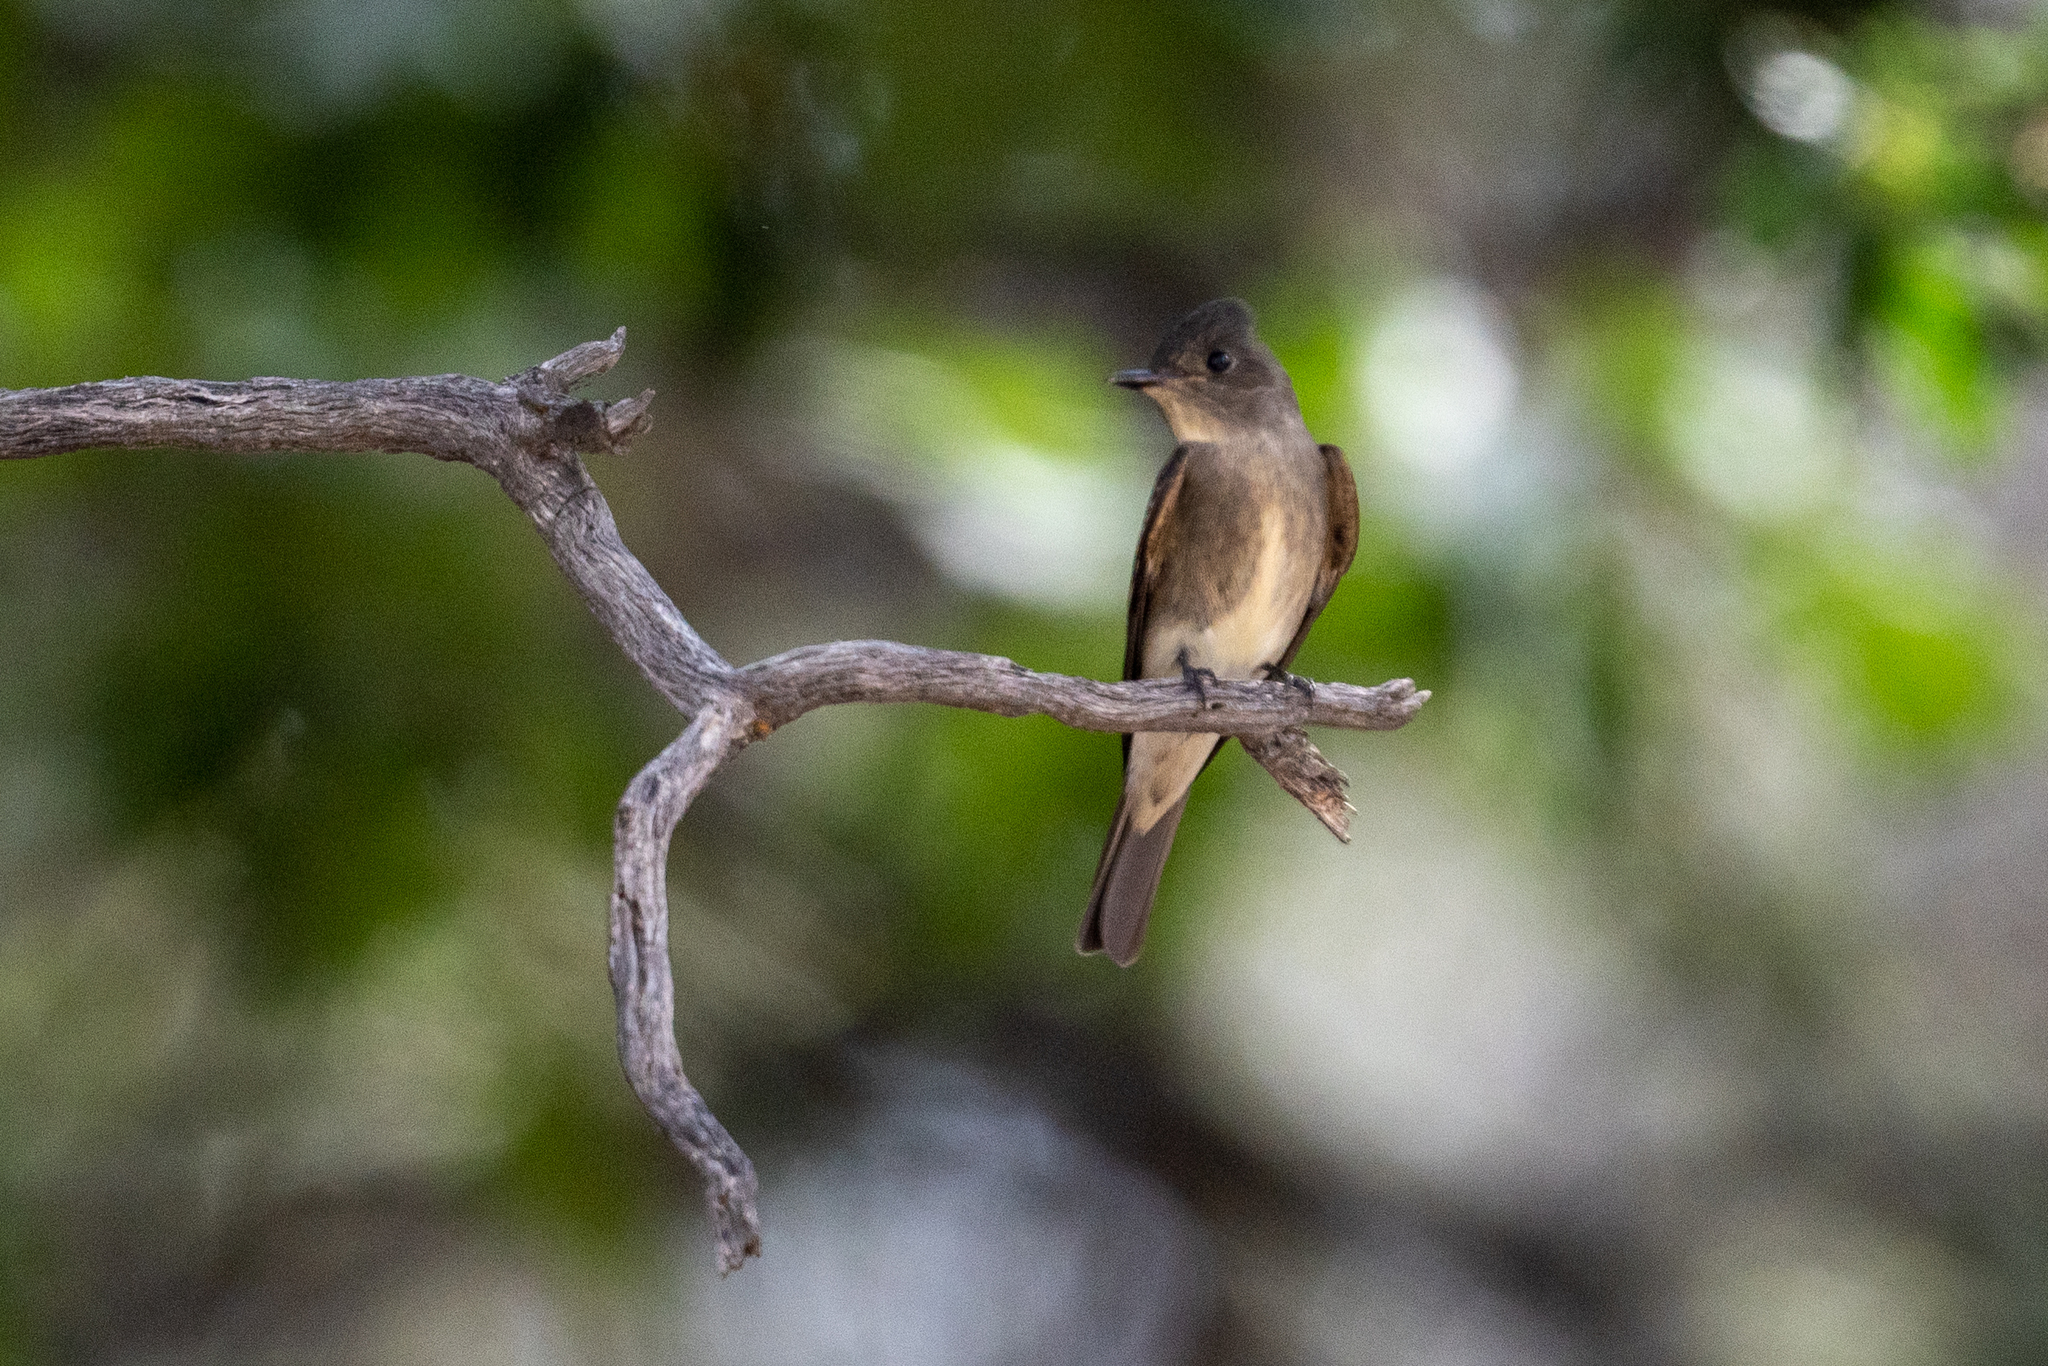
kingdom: Animalia
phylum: Chordata
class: Aves
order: Passeriformes
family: Tyrannidae
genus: Contopus
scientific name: Contopus cooperi
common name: Olive-sided flycatcher
